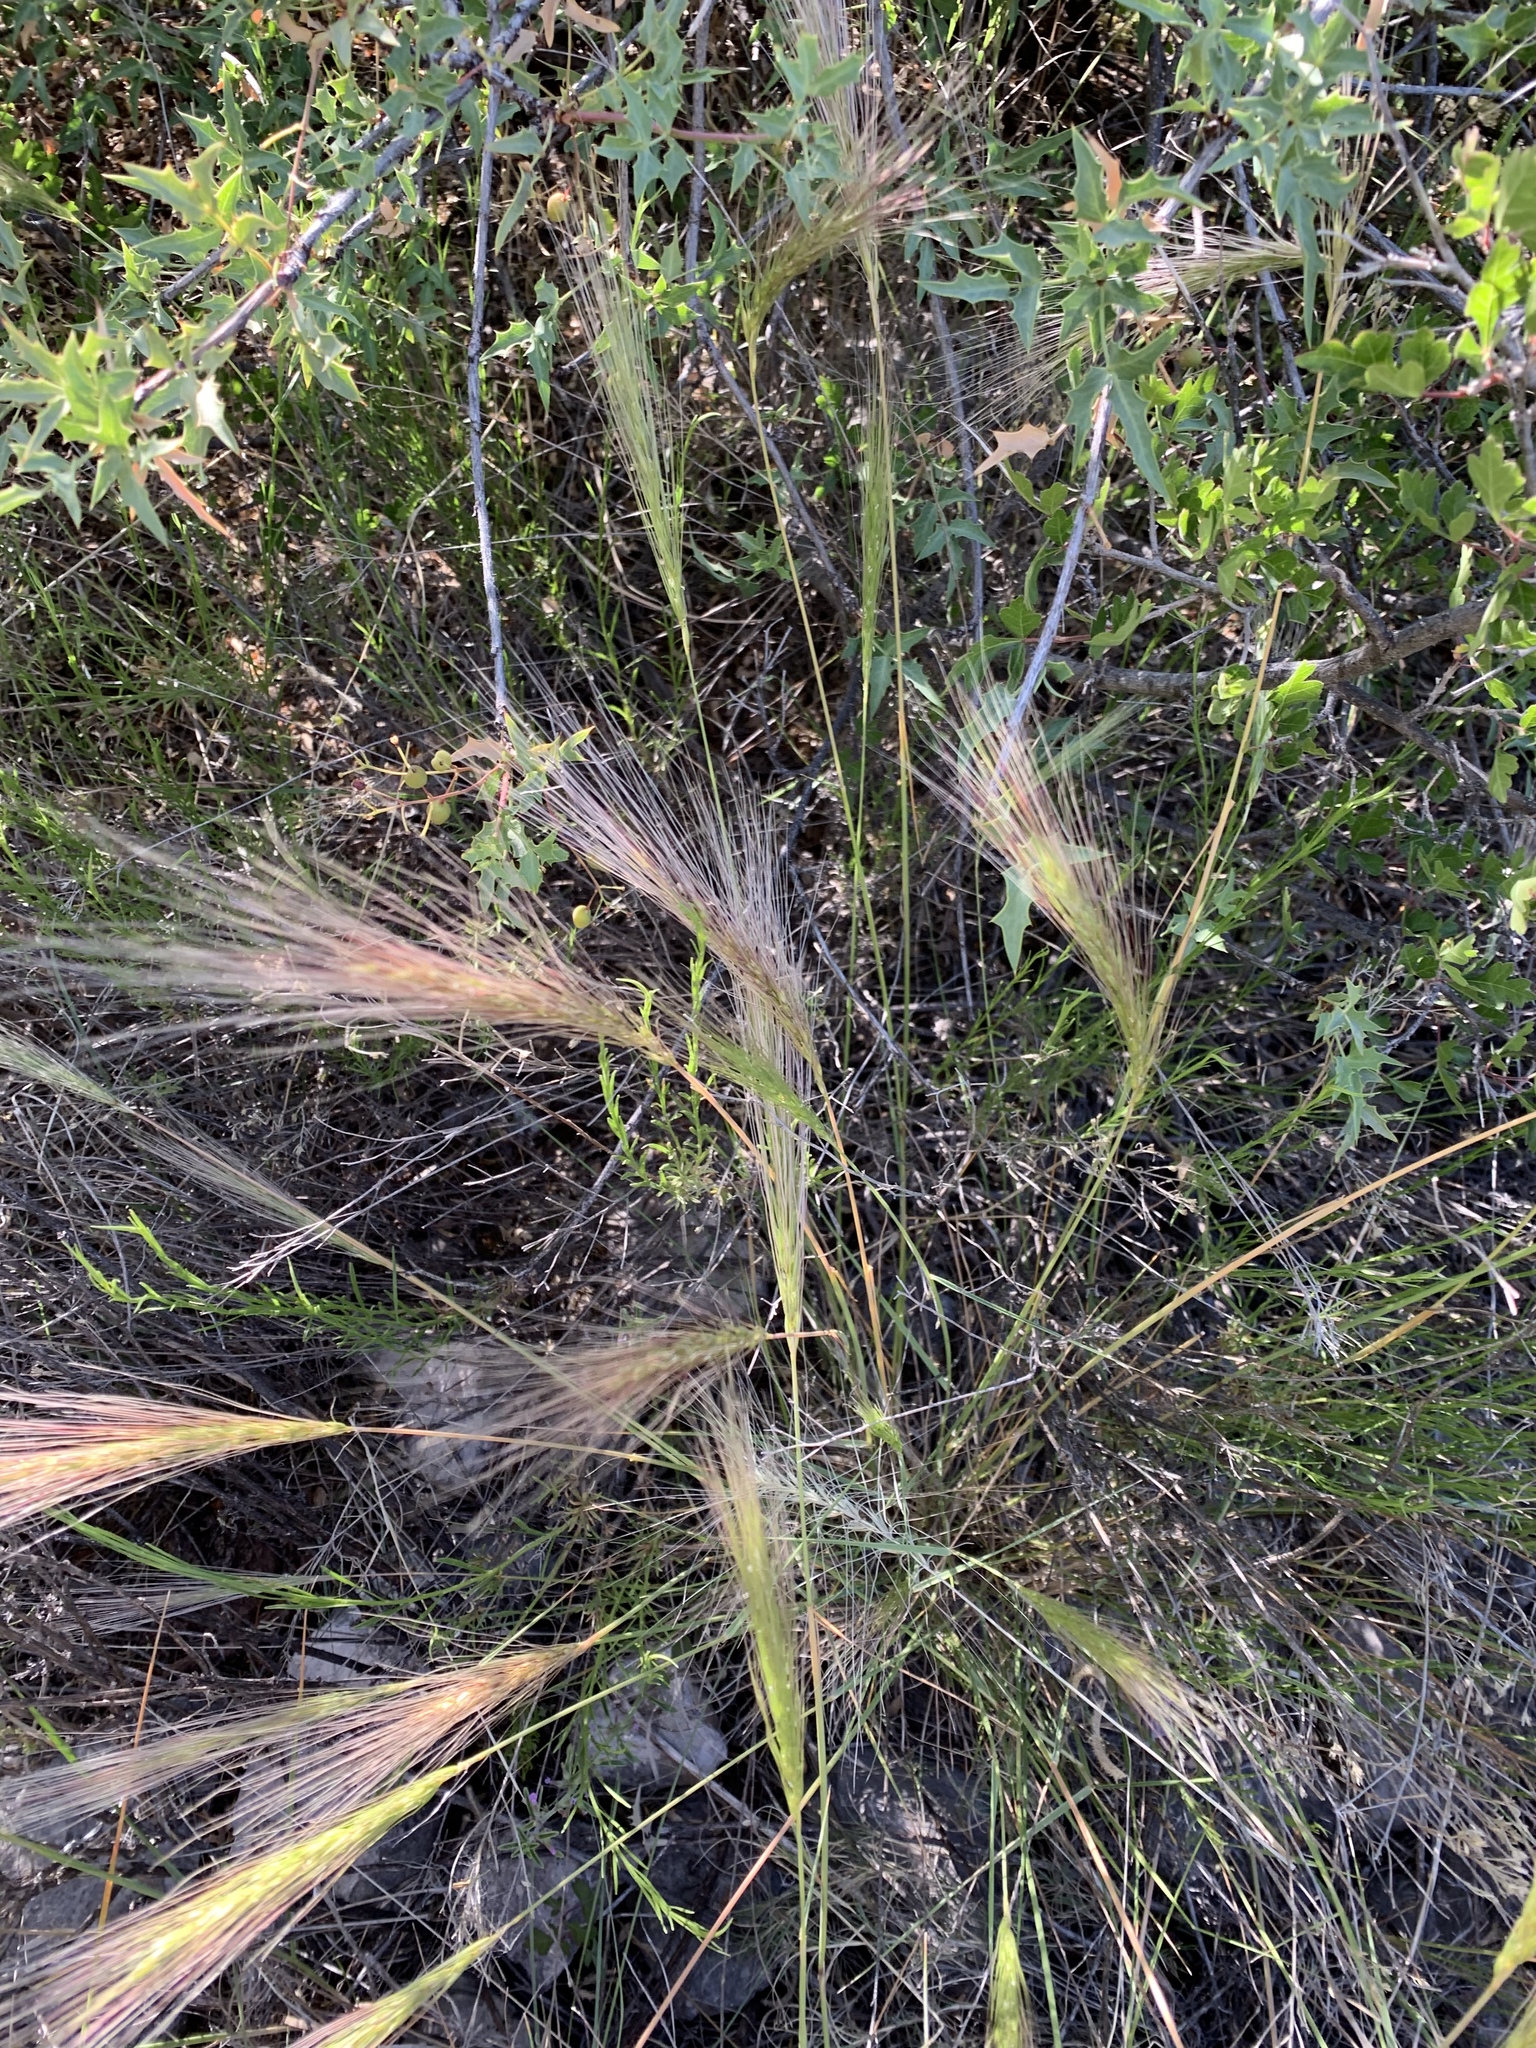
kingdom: Plantae
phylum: Tracheophyta
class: Liliopsida
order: Poales
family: Poaceae
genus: Elymus
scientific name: Elymus longifolius
